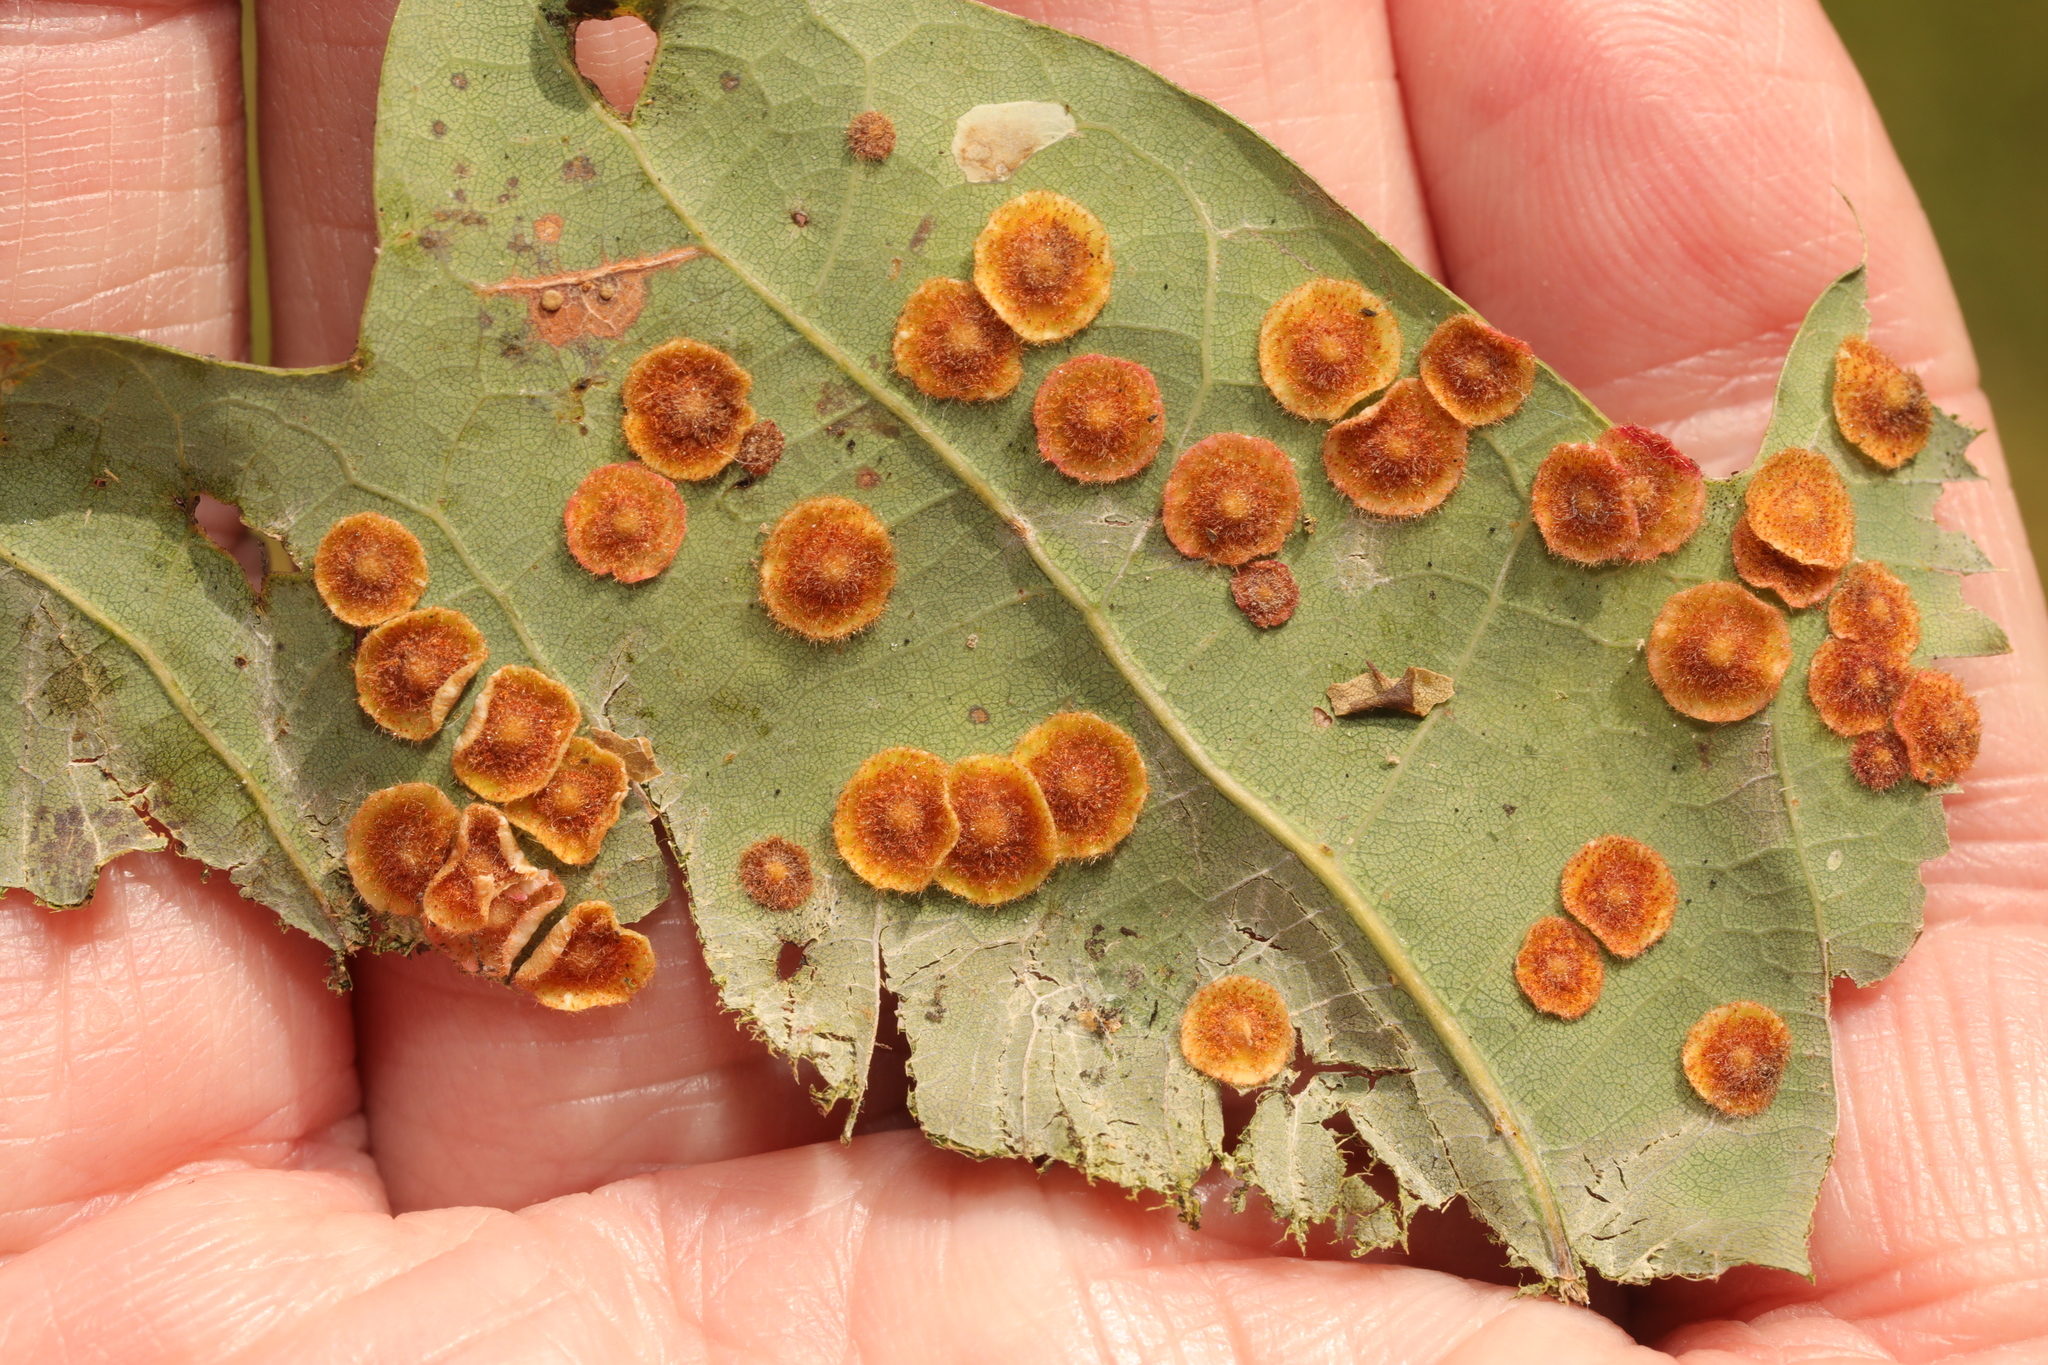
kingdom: Animalia
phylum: Arthropoda
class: Insecta
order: Hymenoptera
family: Cynipidae
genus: Neuroterus
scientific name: Neuroterus quercusbaccarum
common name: Common spangle gall
